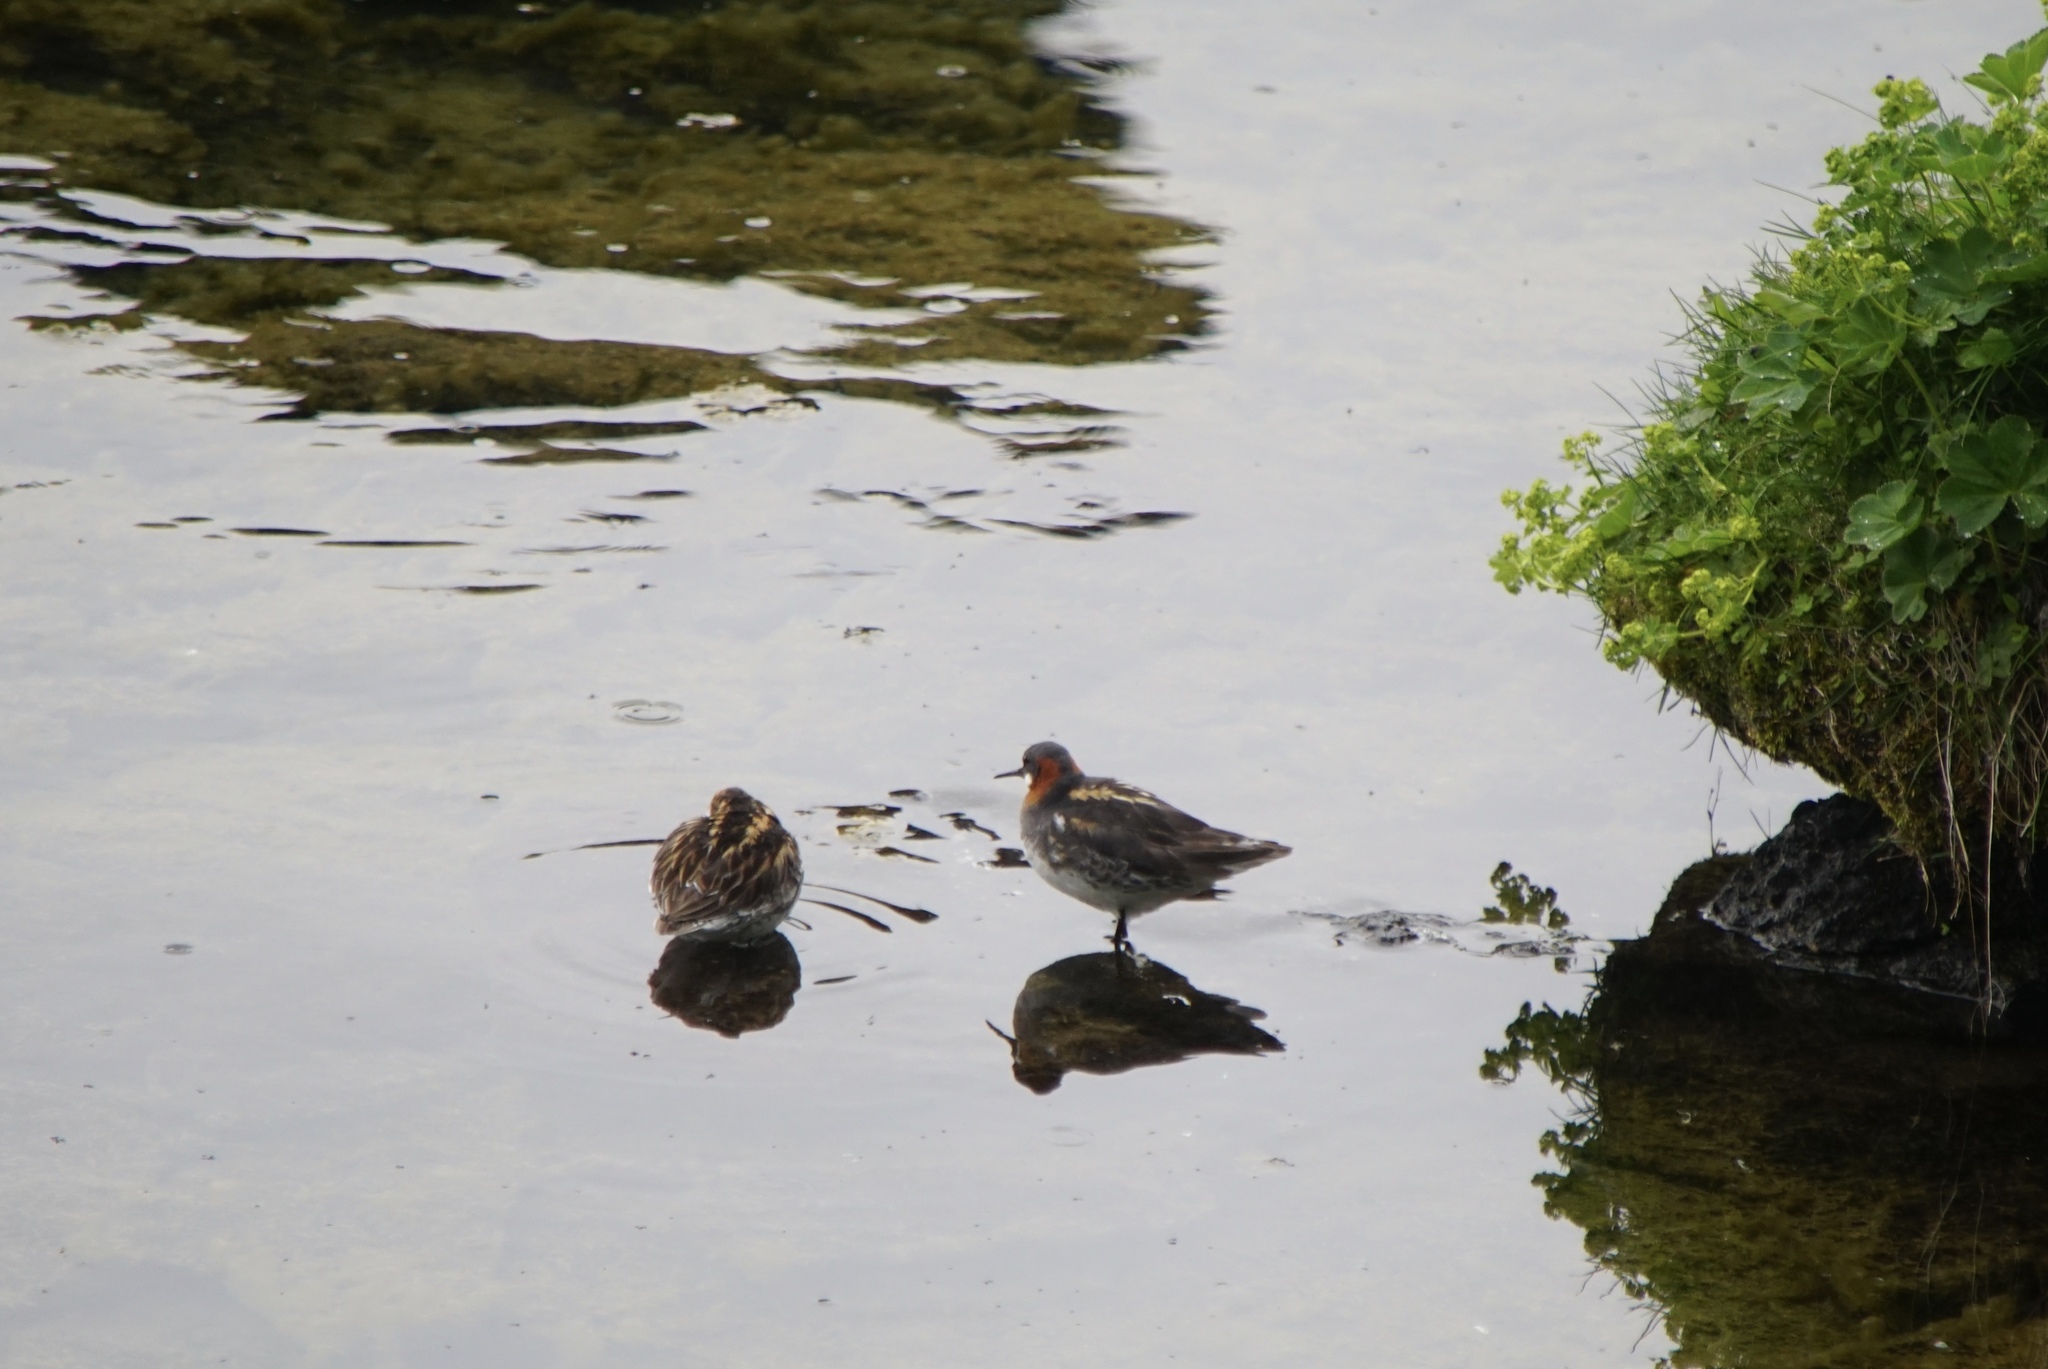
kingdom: Animalia
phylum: Chordata
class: Aves
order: Charadriiformes
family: Scolopacidae
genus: Phalaropus
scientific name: Phalaropus lobatus
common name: Red-necked phalarope
